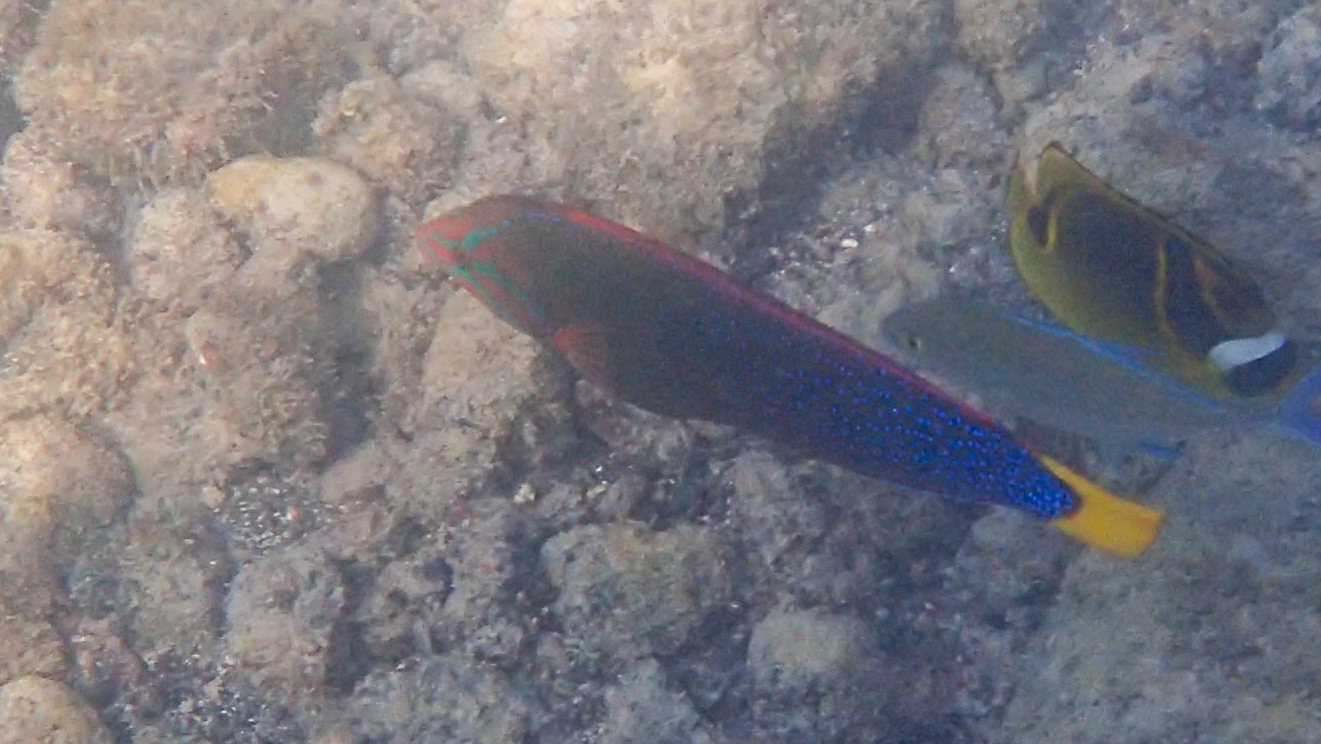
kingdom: Animalia
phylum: Chordata
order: Perciformes
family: Labridae
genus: Coris
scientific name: Coris gaimard
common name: Yellowtail coris
